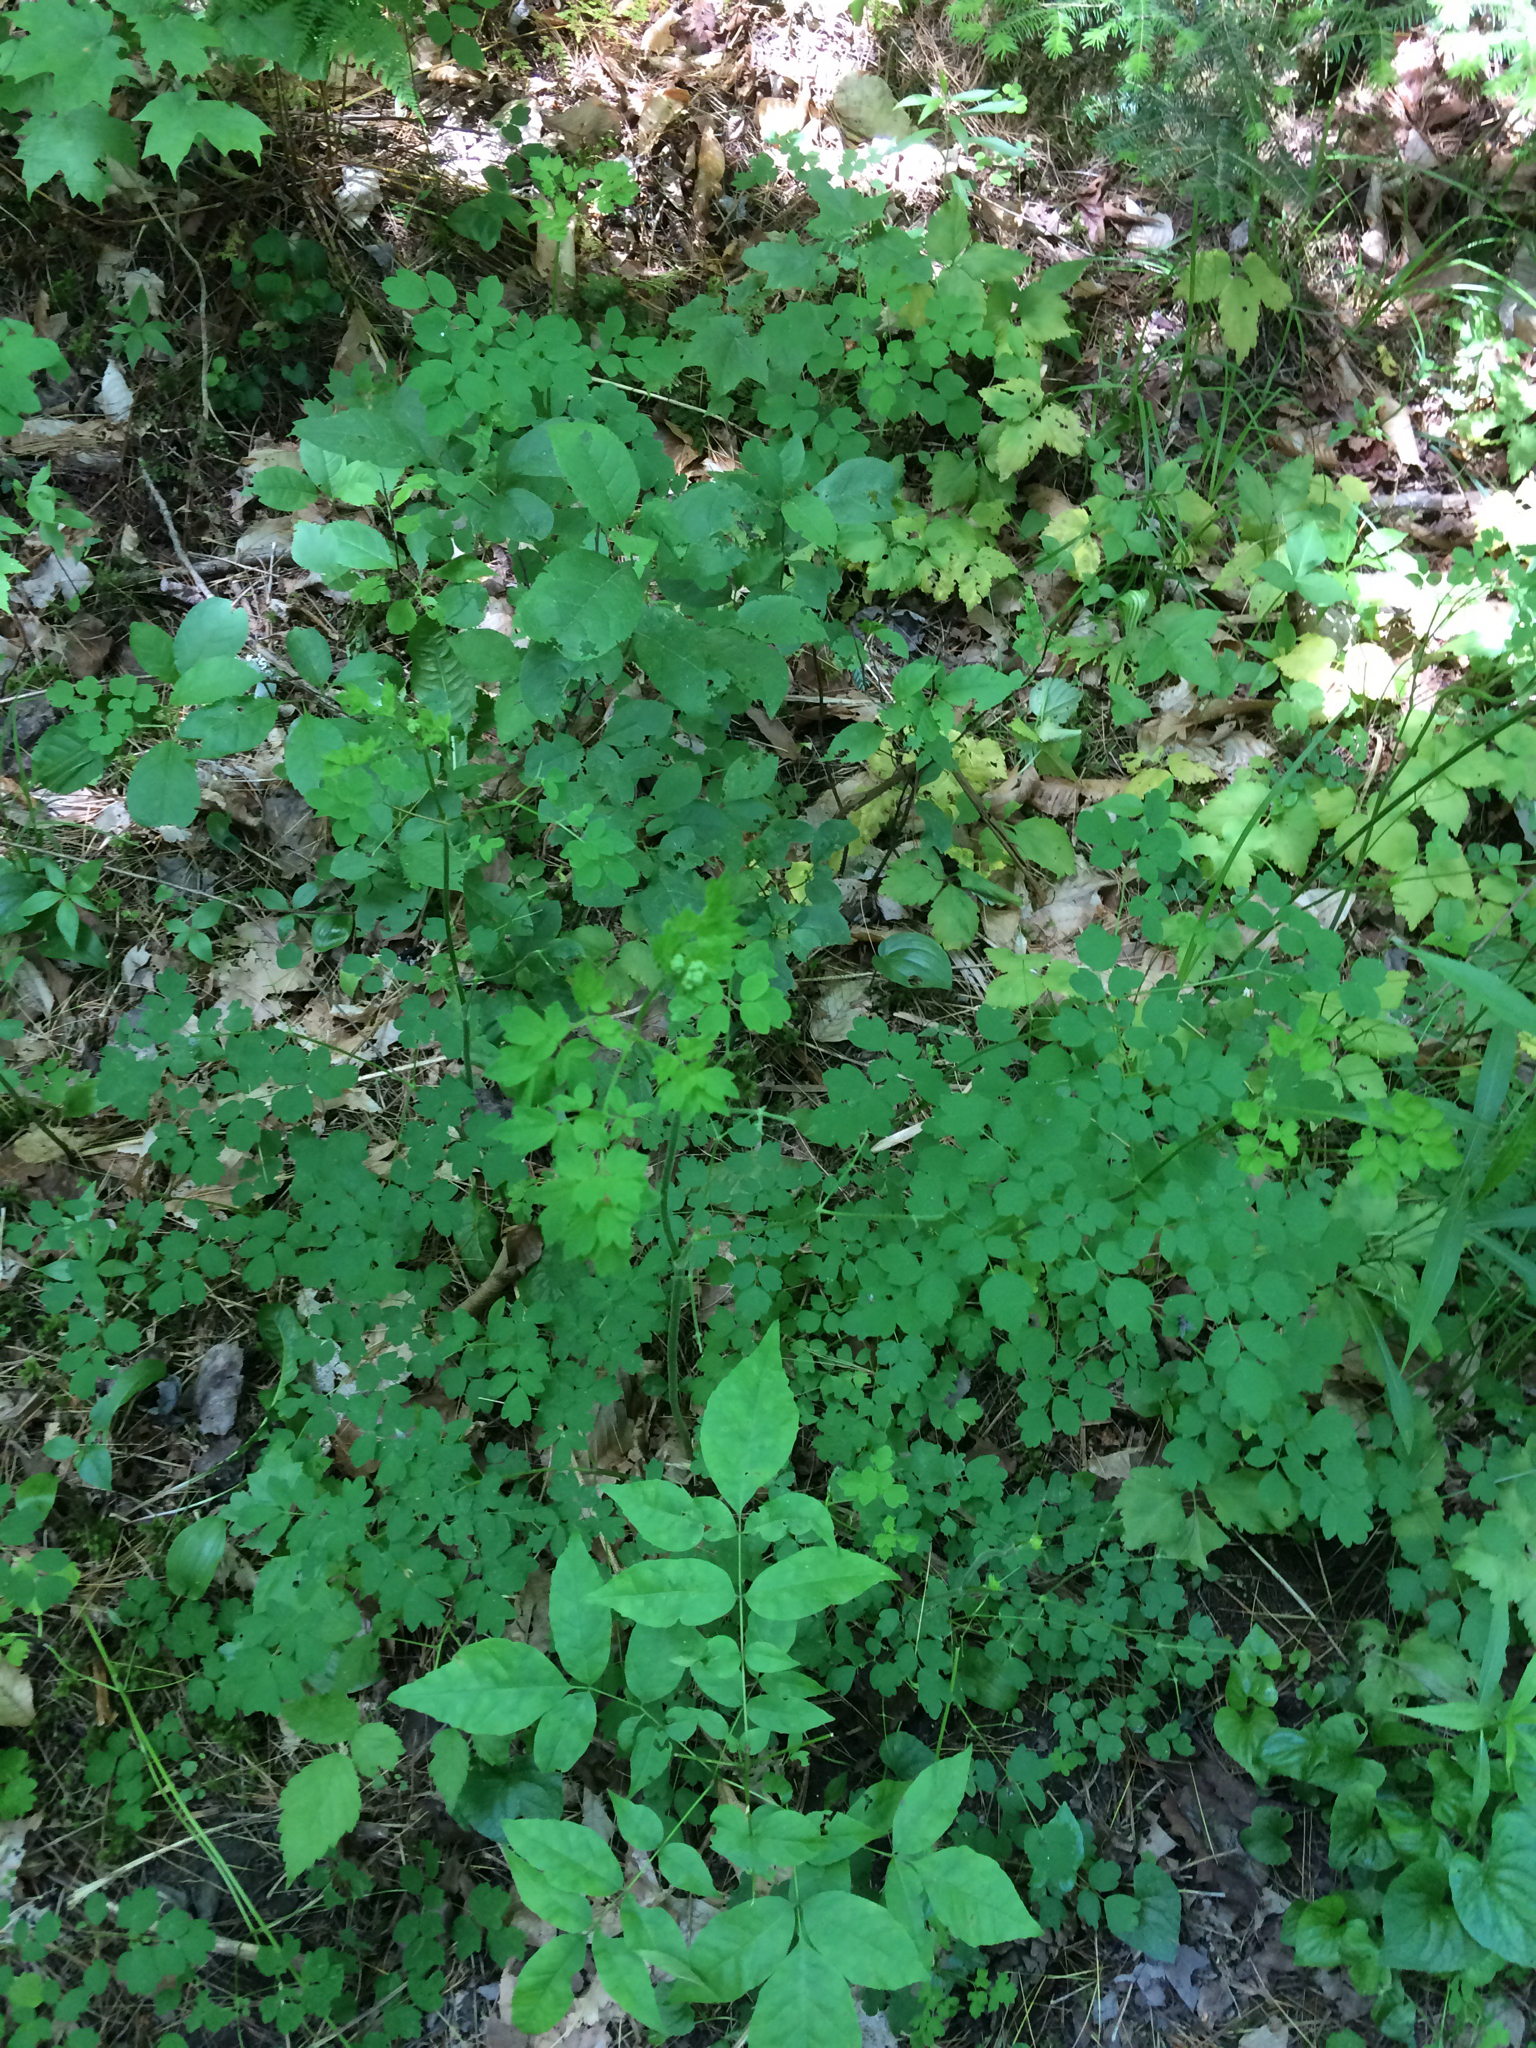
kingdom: Plantae
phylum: Tracheophyta
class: Magnoliopsida
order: Ranunculales
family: Ranunculaceae
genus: Thalictrum
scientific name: Thalictrum pubescens
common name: King-of-the-meadow
